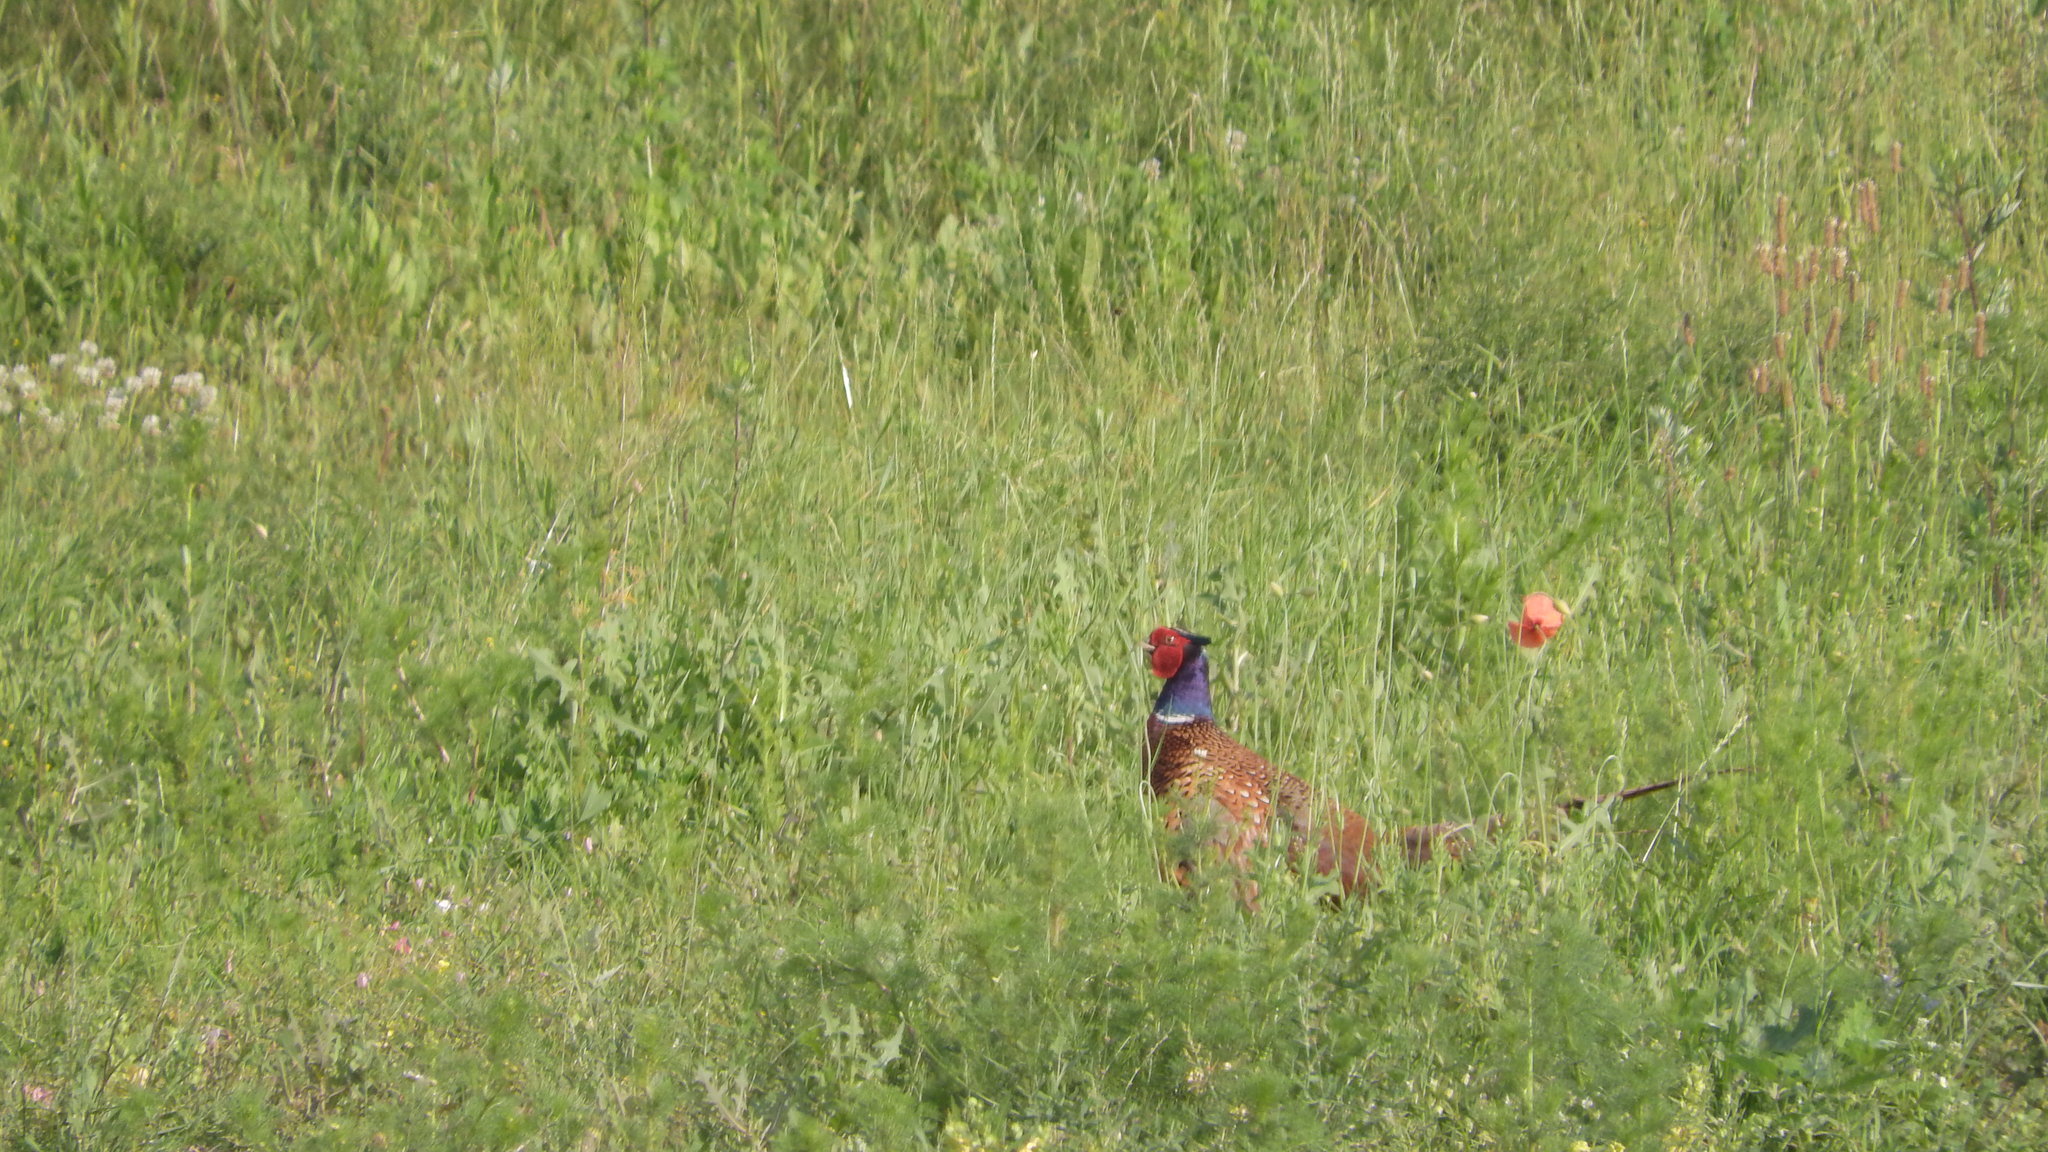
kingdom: Animalia
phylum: Chordata
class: Aves
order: Galliformes
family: Phasianidae
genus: Phasianus
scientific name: Phasianus colchicus
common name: Common pheasant
